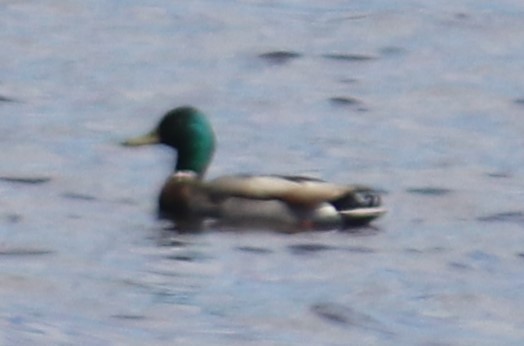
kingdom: Animalia
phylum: Chordata
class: Aves
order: Anseriformes
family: Anatidae
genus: Anas
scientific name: Anas platyrhynchos
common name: Mallard
